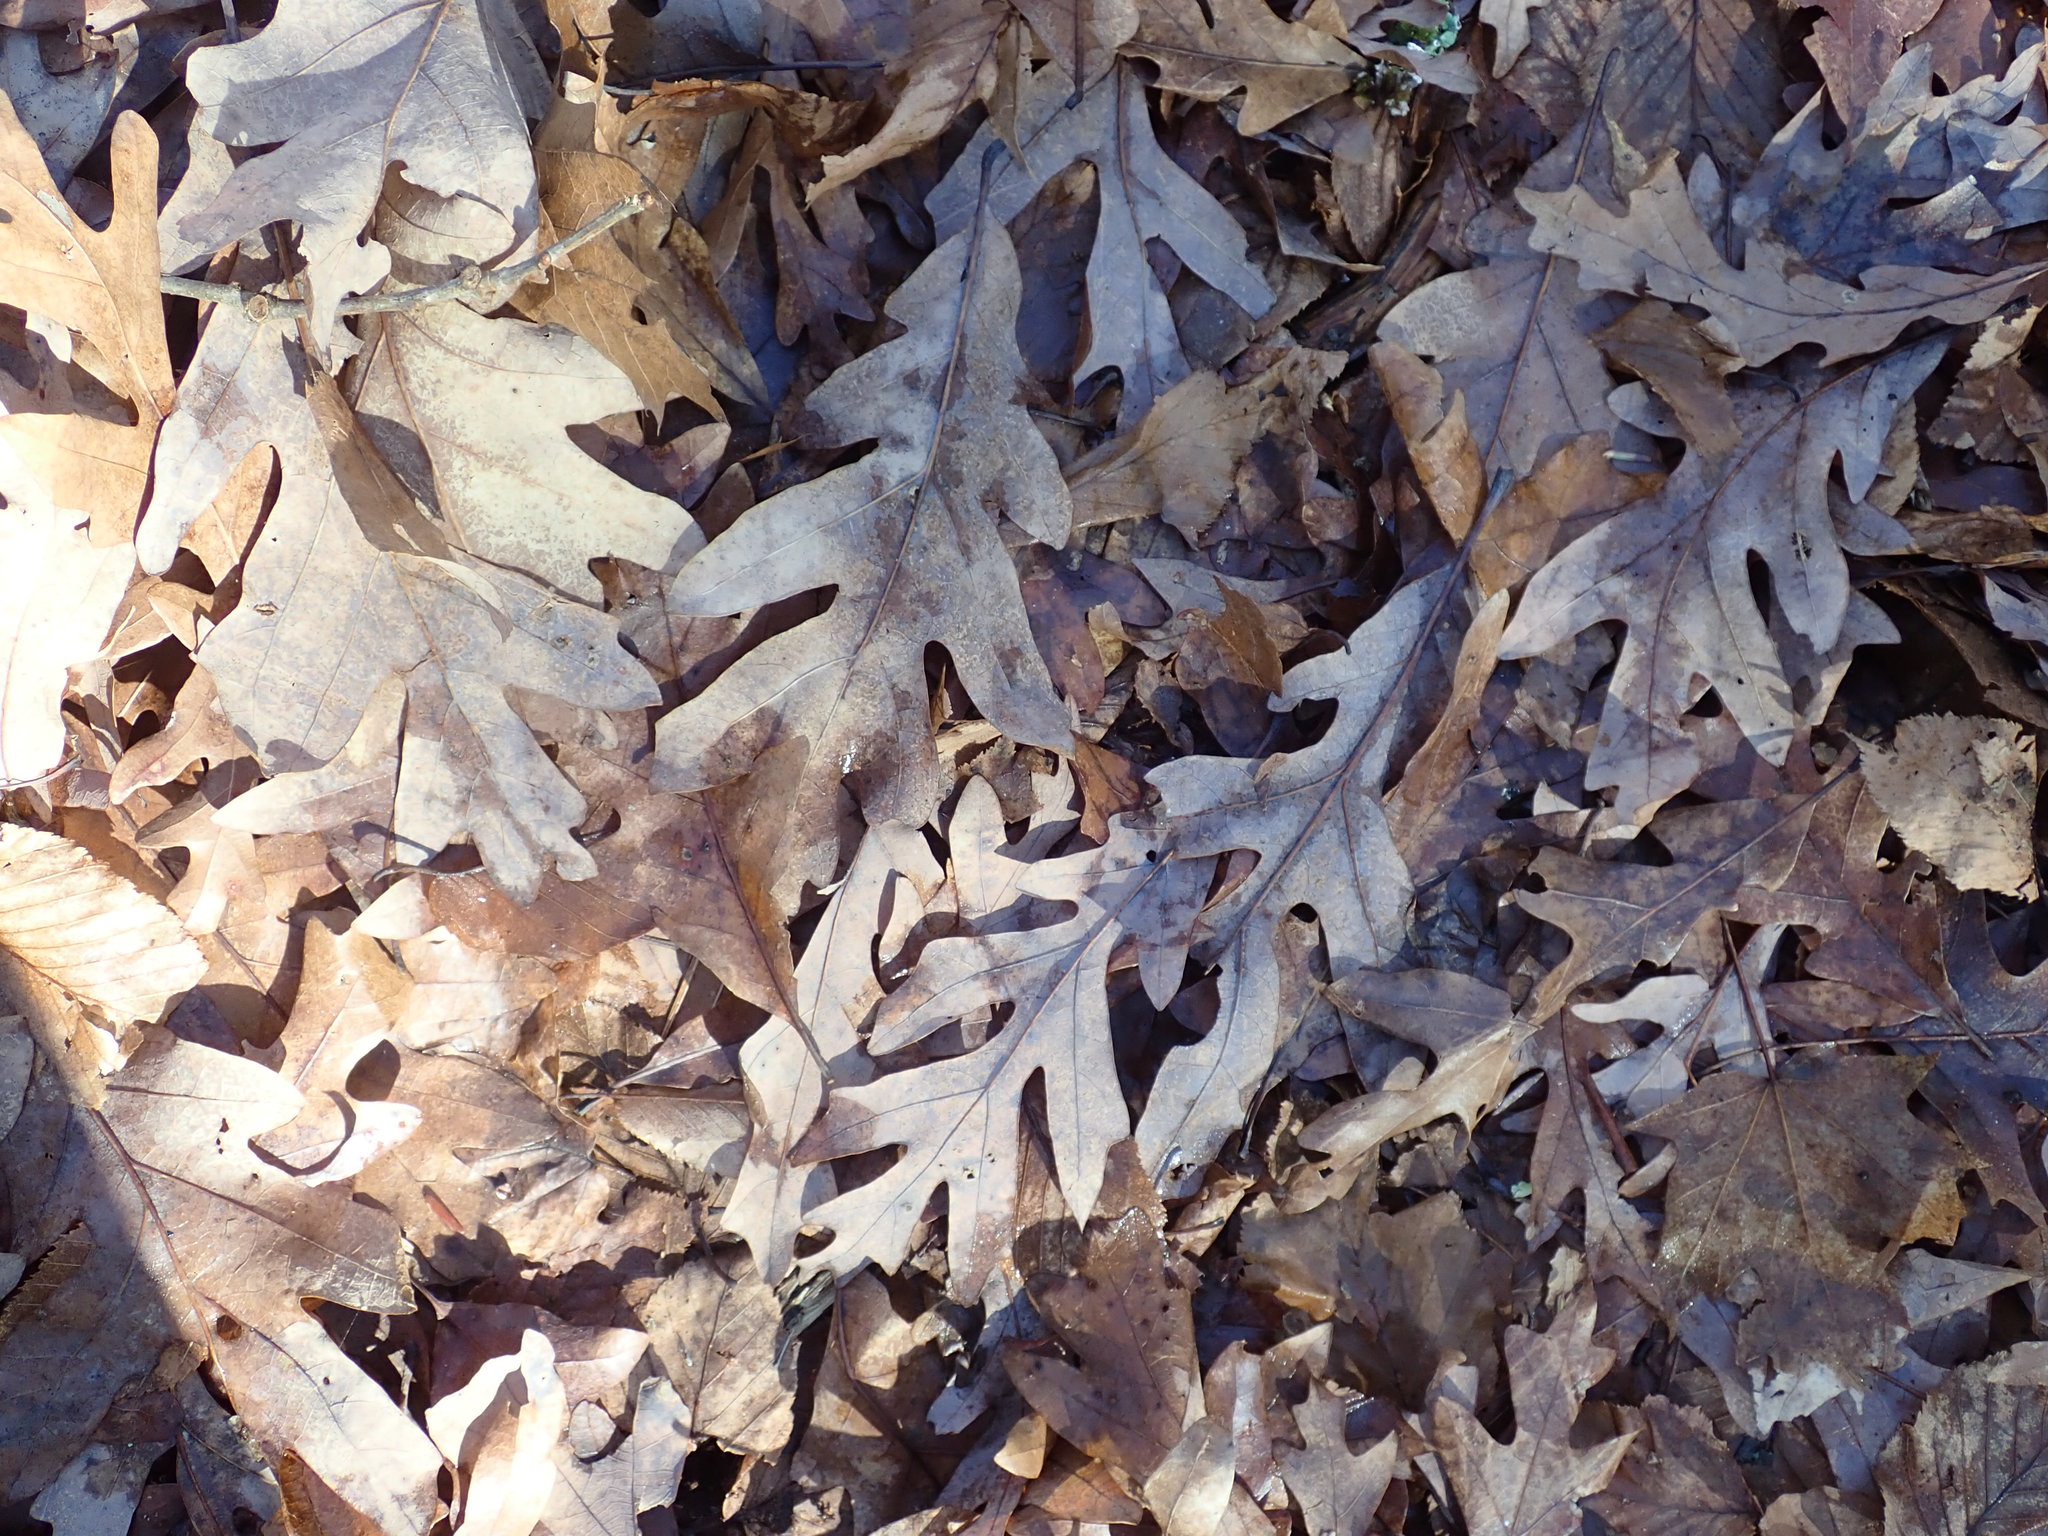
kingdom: Plantae
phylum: Tracheophyta
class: Magnoliopsida
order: Fagales
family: Fagaceae
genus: Quercus
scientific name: Quercus alba
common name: White oak
